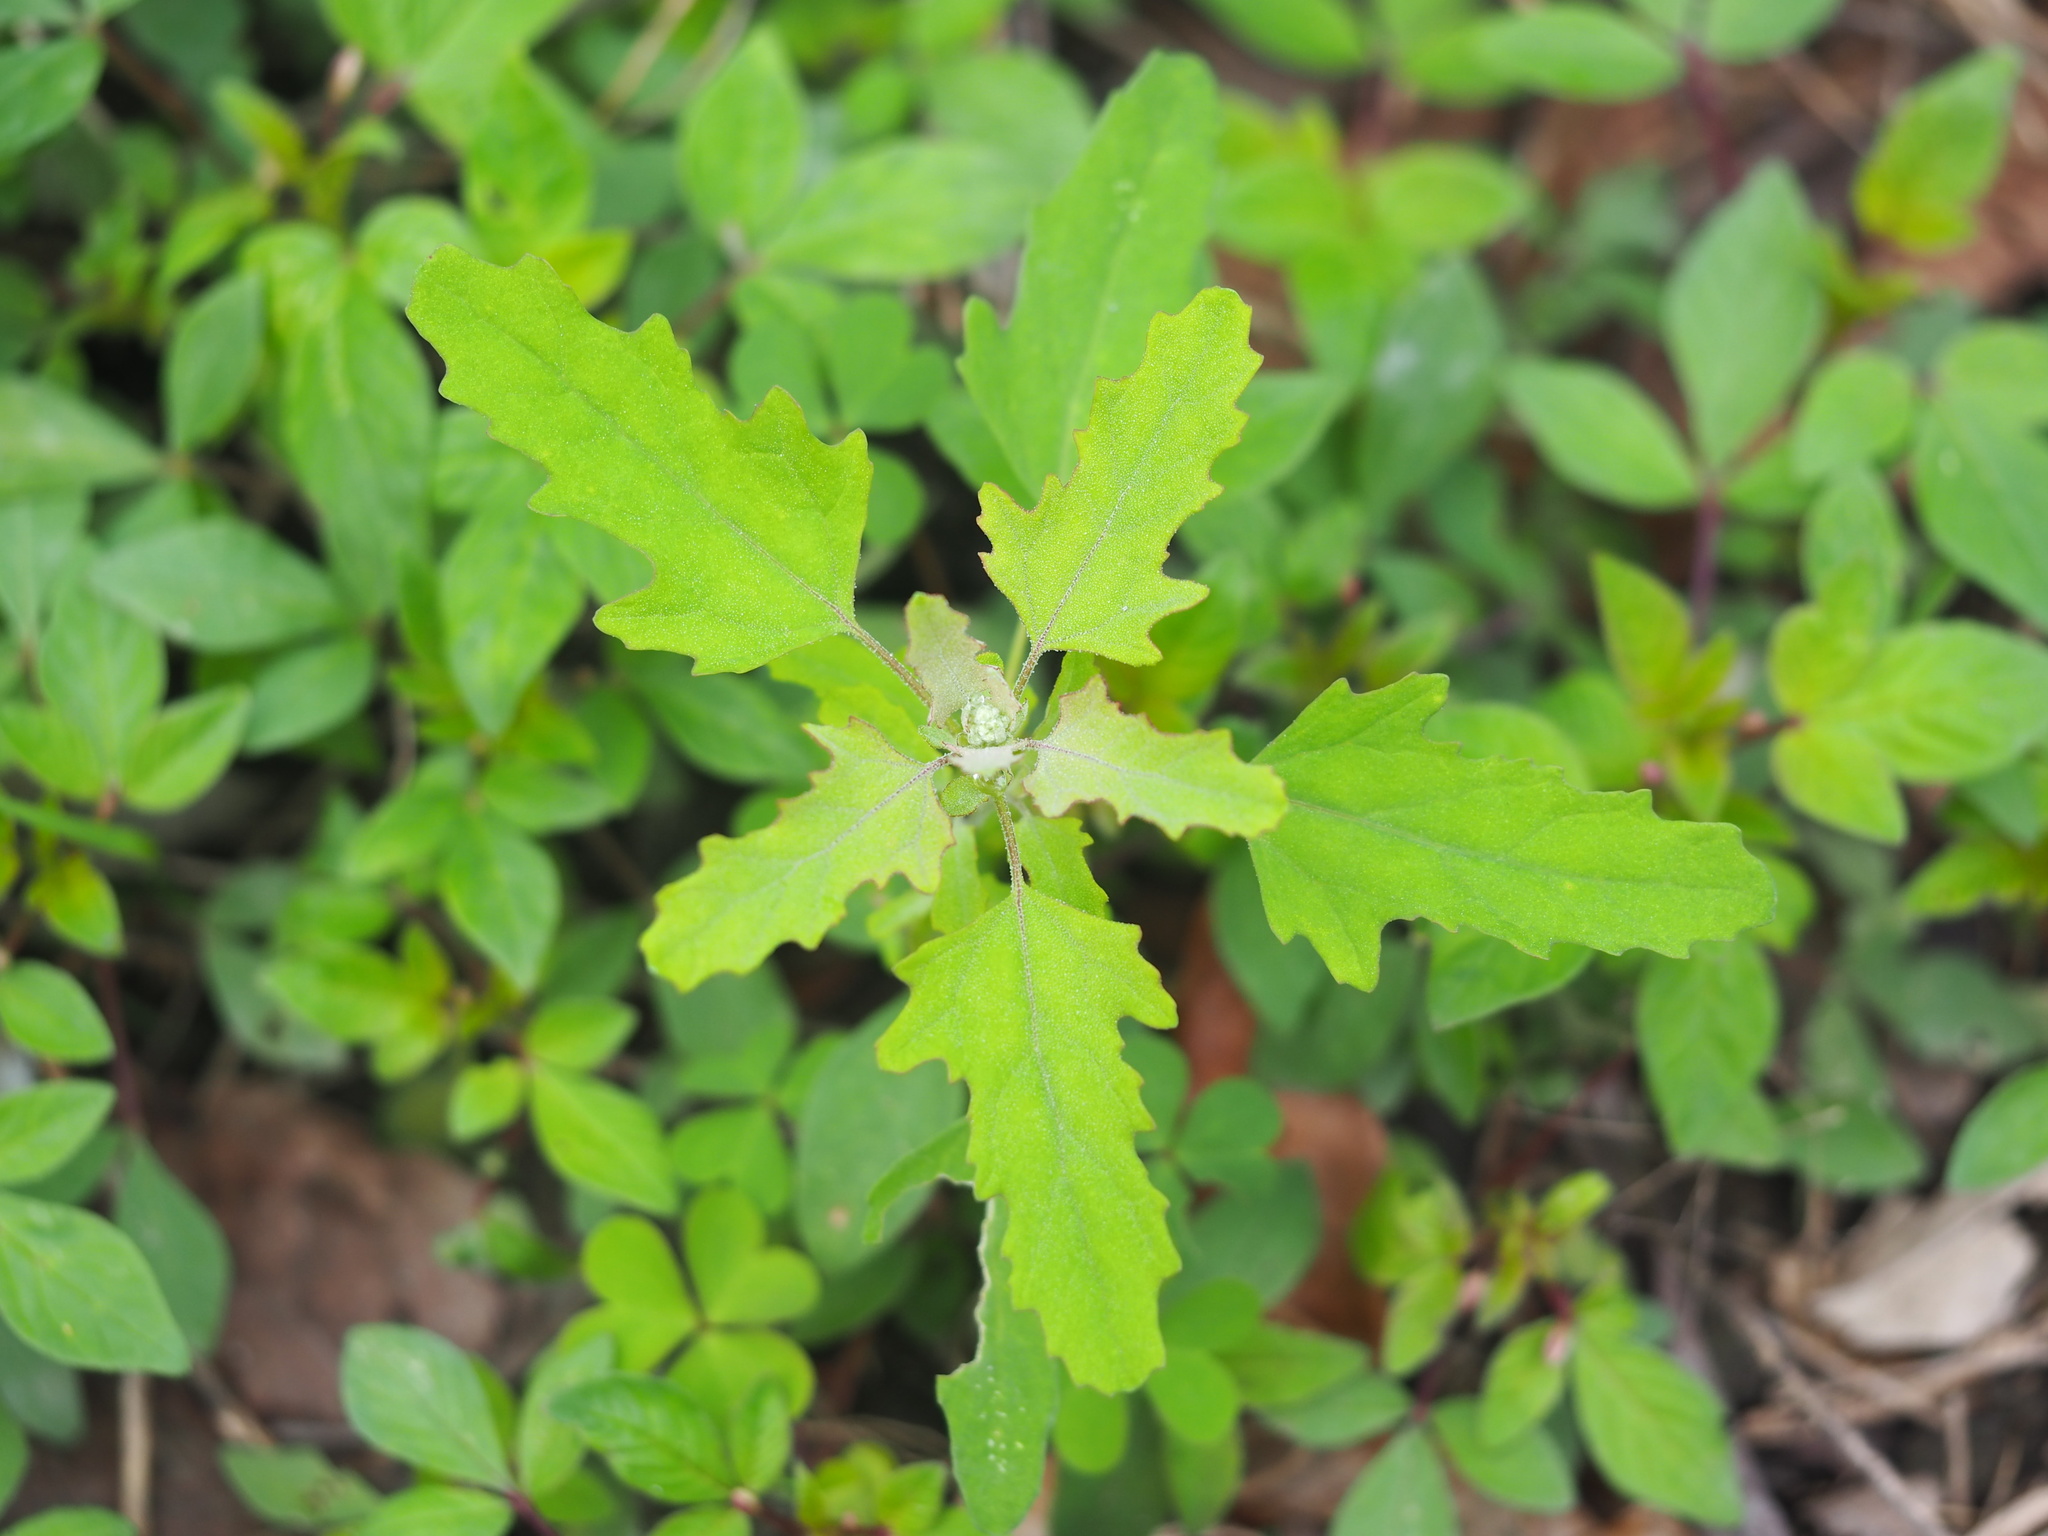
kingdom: Plantae
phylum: Tracheophyta
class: Magnoliopsida
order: Caryophyllales
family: Amaranthaceae
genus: Chenopodium
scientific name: Chenopodium ficifolium
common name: Fig-leaved goosefoot
